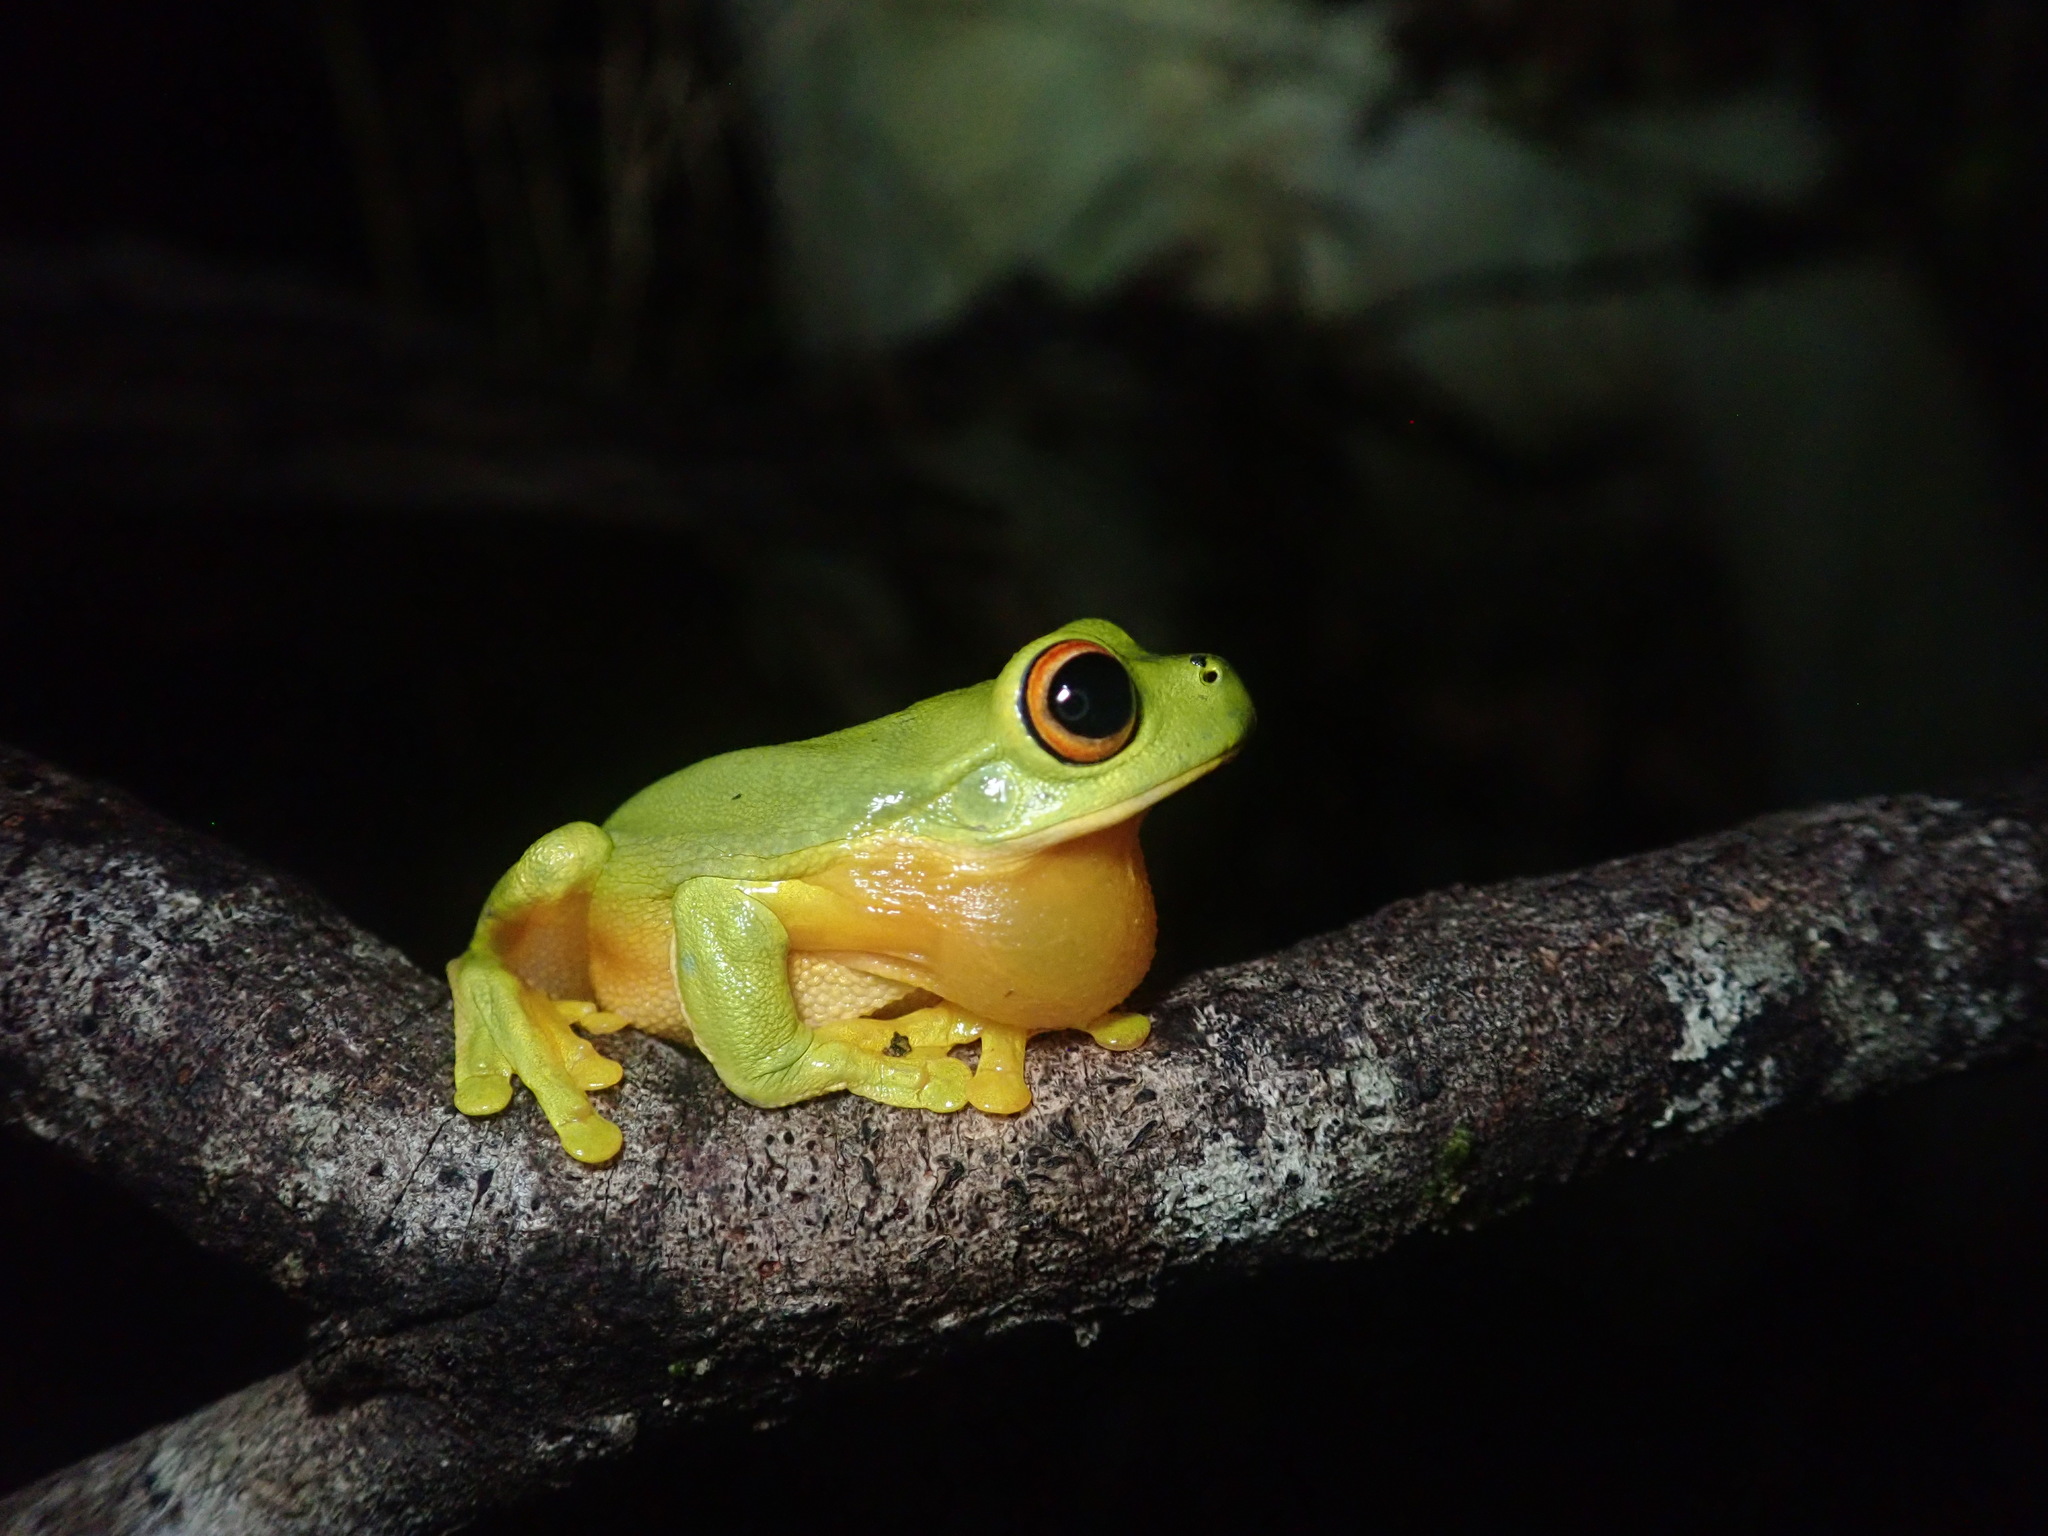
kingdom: Animalia
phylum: Chordata
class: Amphibia
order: Anura
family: Pelodryadidae
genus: Ranoidea
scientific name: Ranoidea xanthomera
